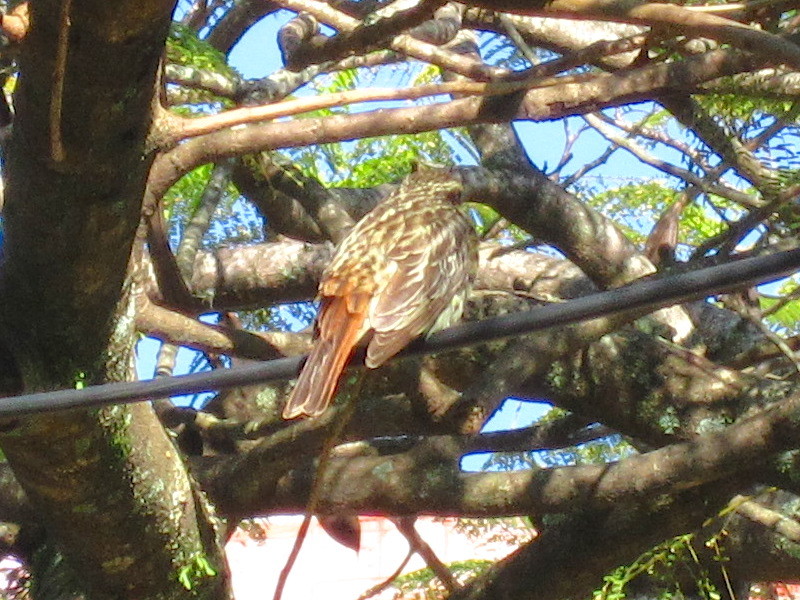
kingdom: Animalia
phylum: Chordata
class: Aves
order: Passeriformes
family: Tyrannidae
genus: Myiodynastes
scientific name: Myiodynastes maculatus
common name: Streaked flycatcher
